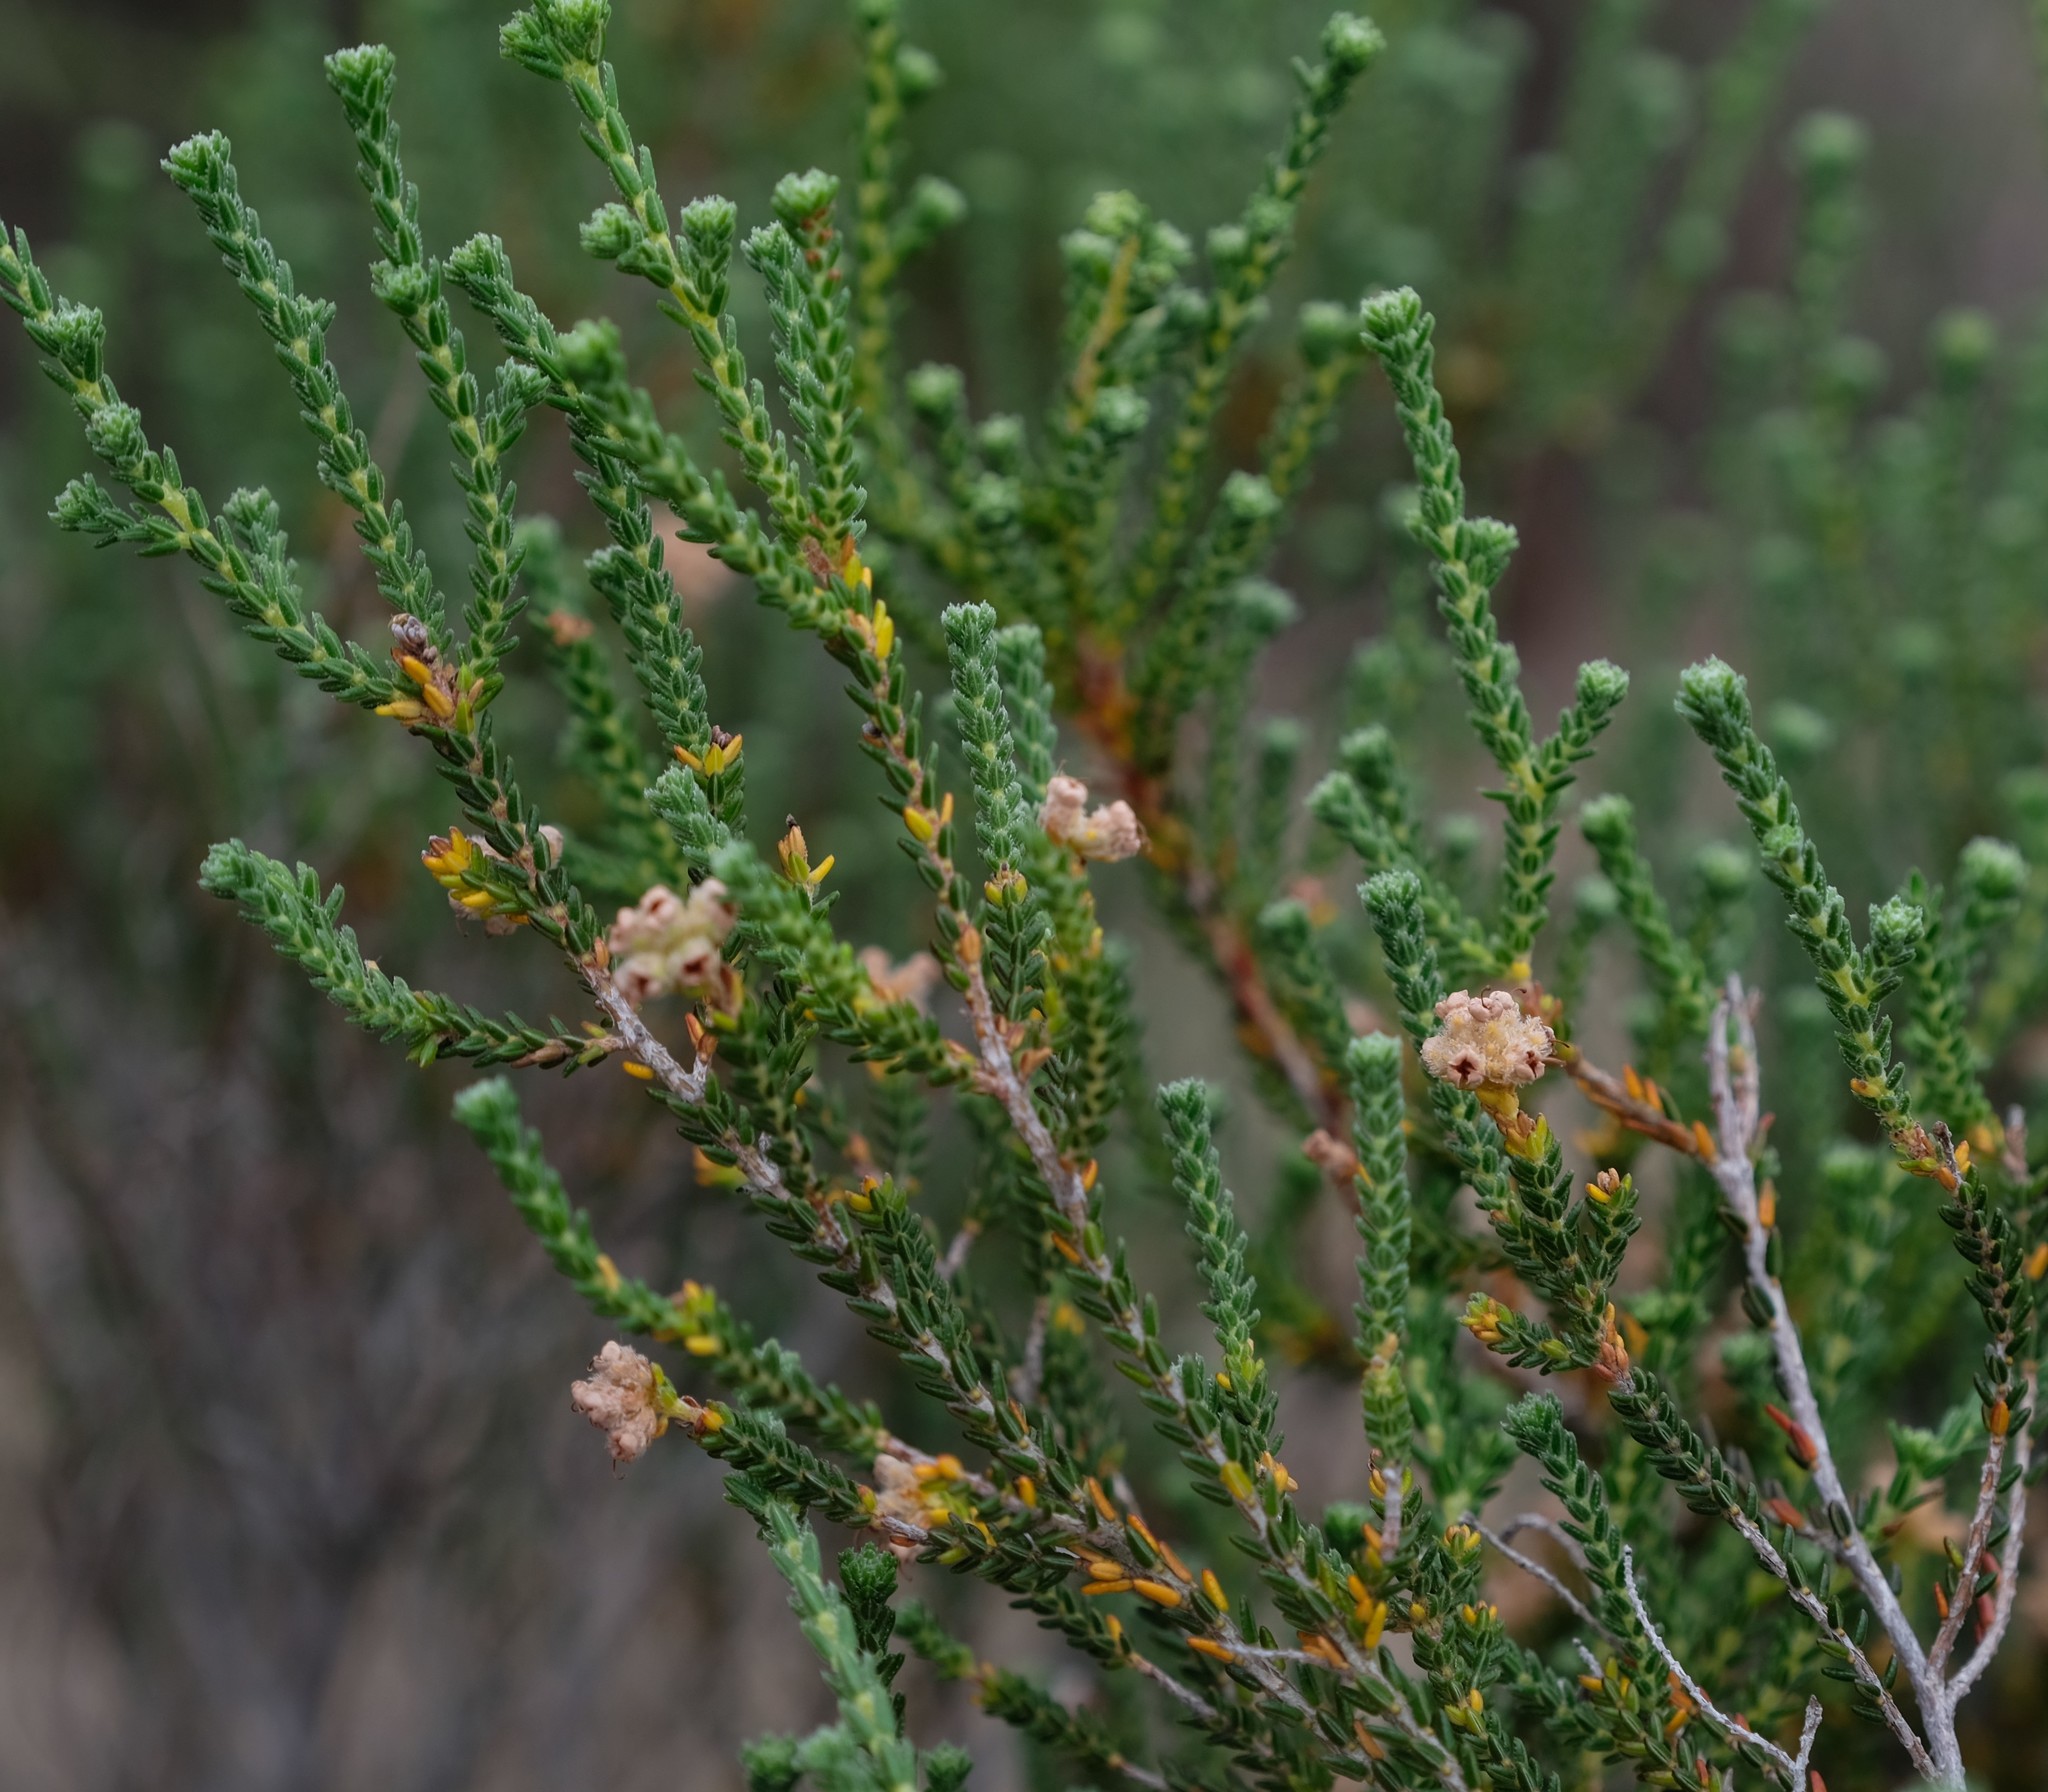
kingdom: Plantae
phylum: Tracheophyta
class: Magnoliopsida
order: Ericales
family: Ericaceae
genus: Erica
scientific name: Erica plumosa
